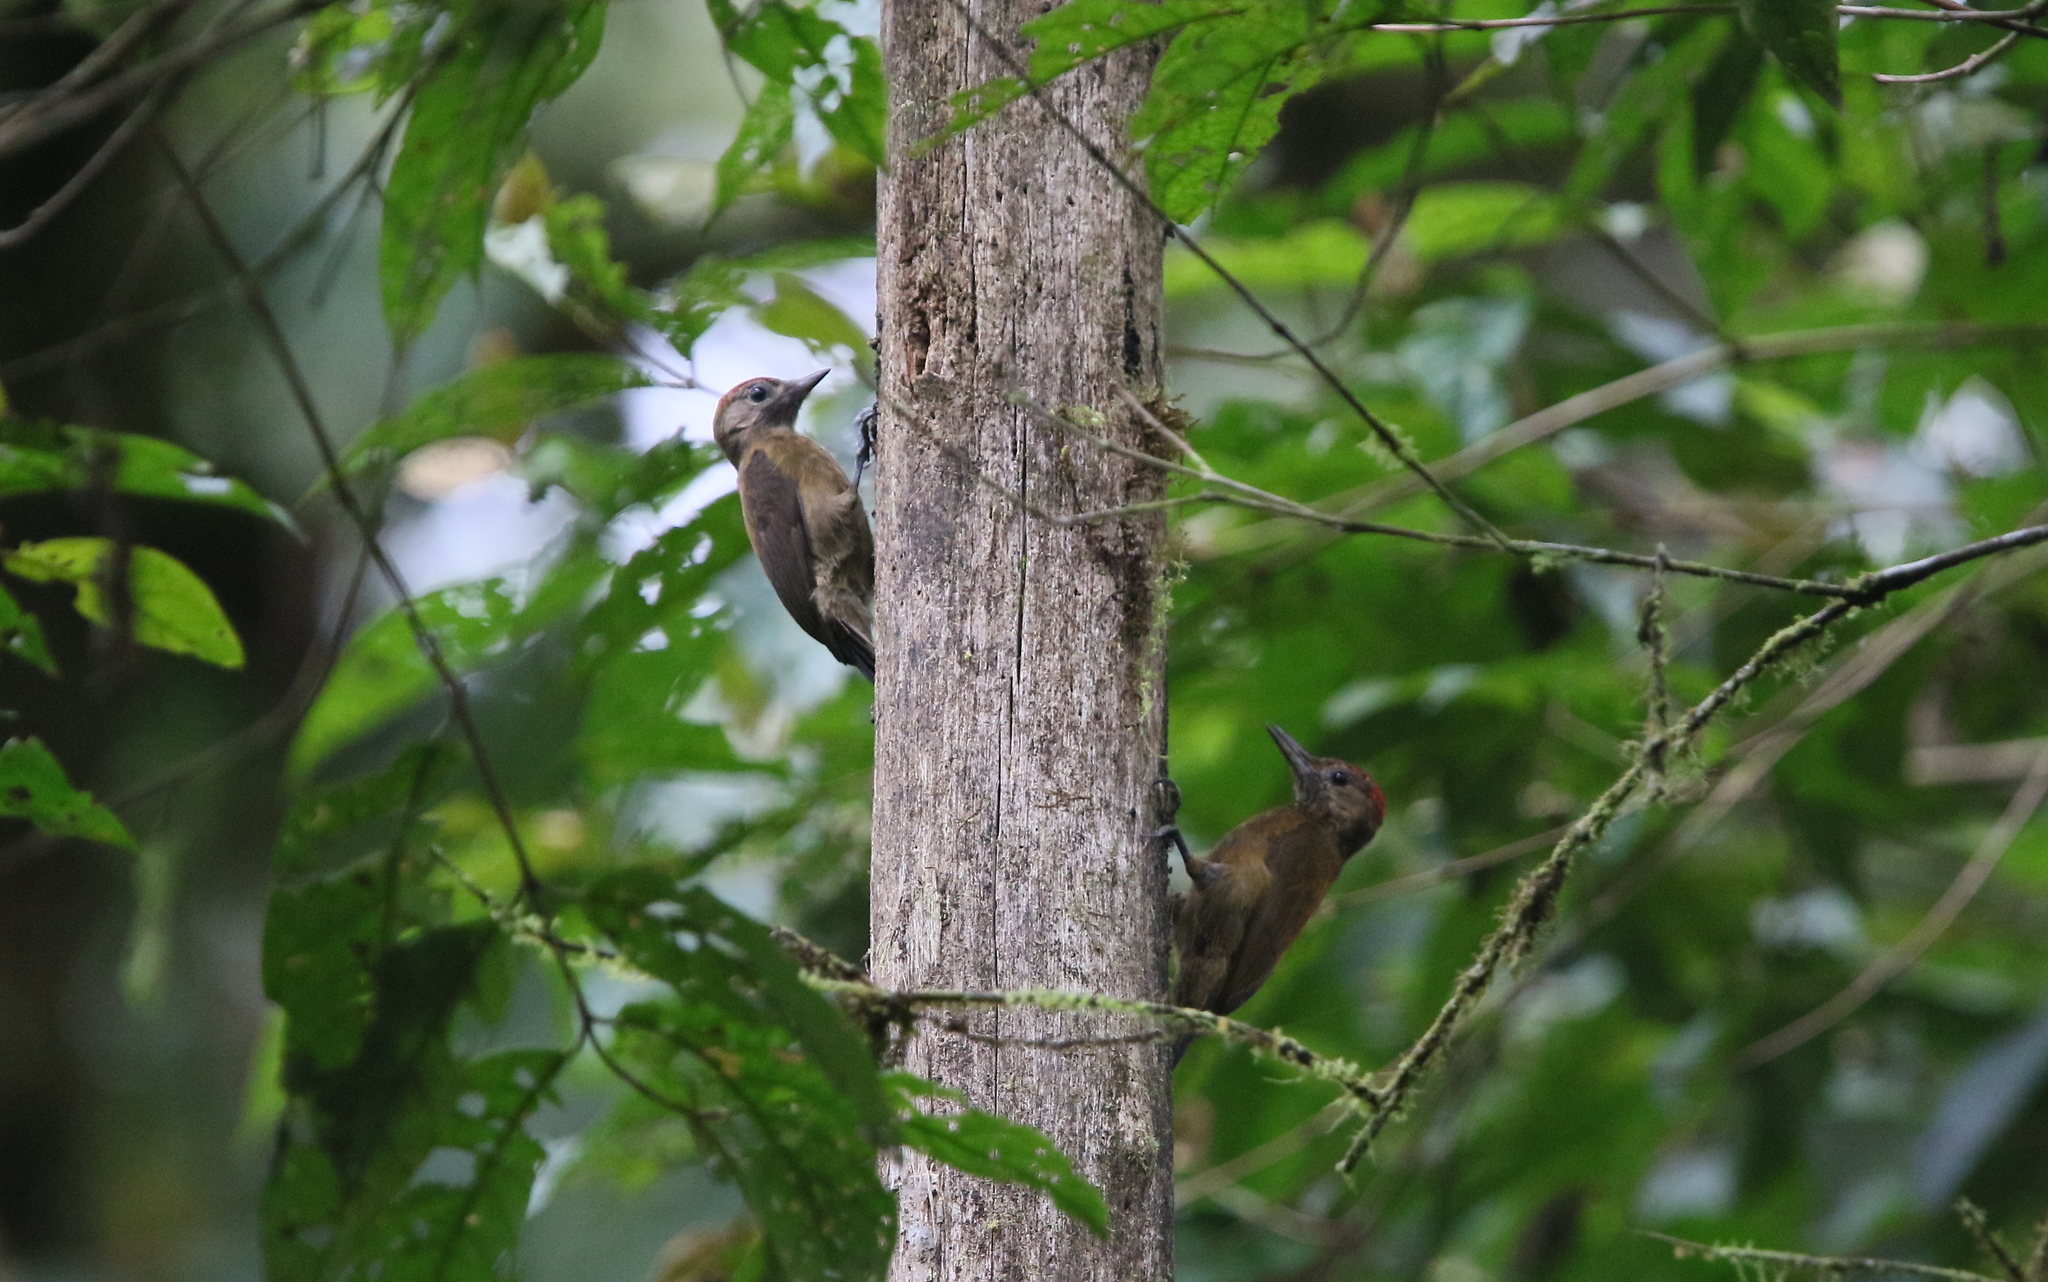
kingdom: Animalia
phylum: Chordata
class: Aves
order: Piciformes
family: Picidae
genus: Leuconotopicus
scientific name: Leuconotopicus fumigatus
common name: Smoky-brown woodpecker
